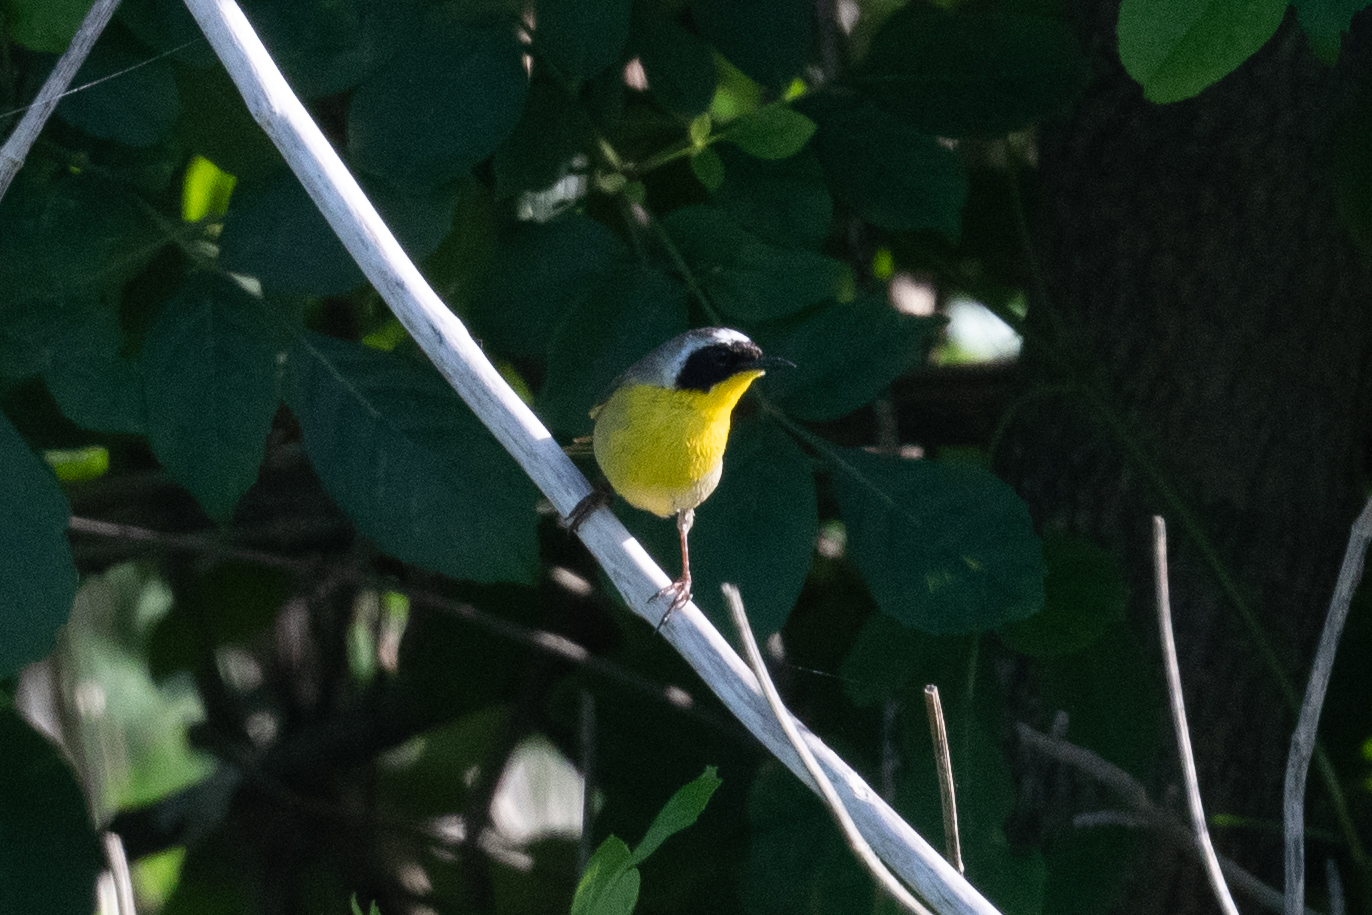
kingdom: Animalia
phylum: Chordata
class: Aves
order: Passeriformes
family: Parulidae
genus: Geothlypis
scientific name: Geothlypis trichas
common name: Common yellowthroat
